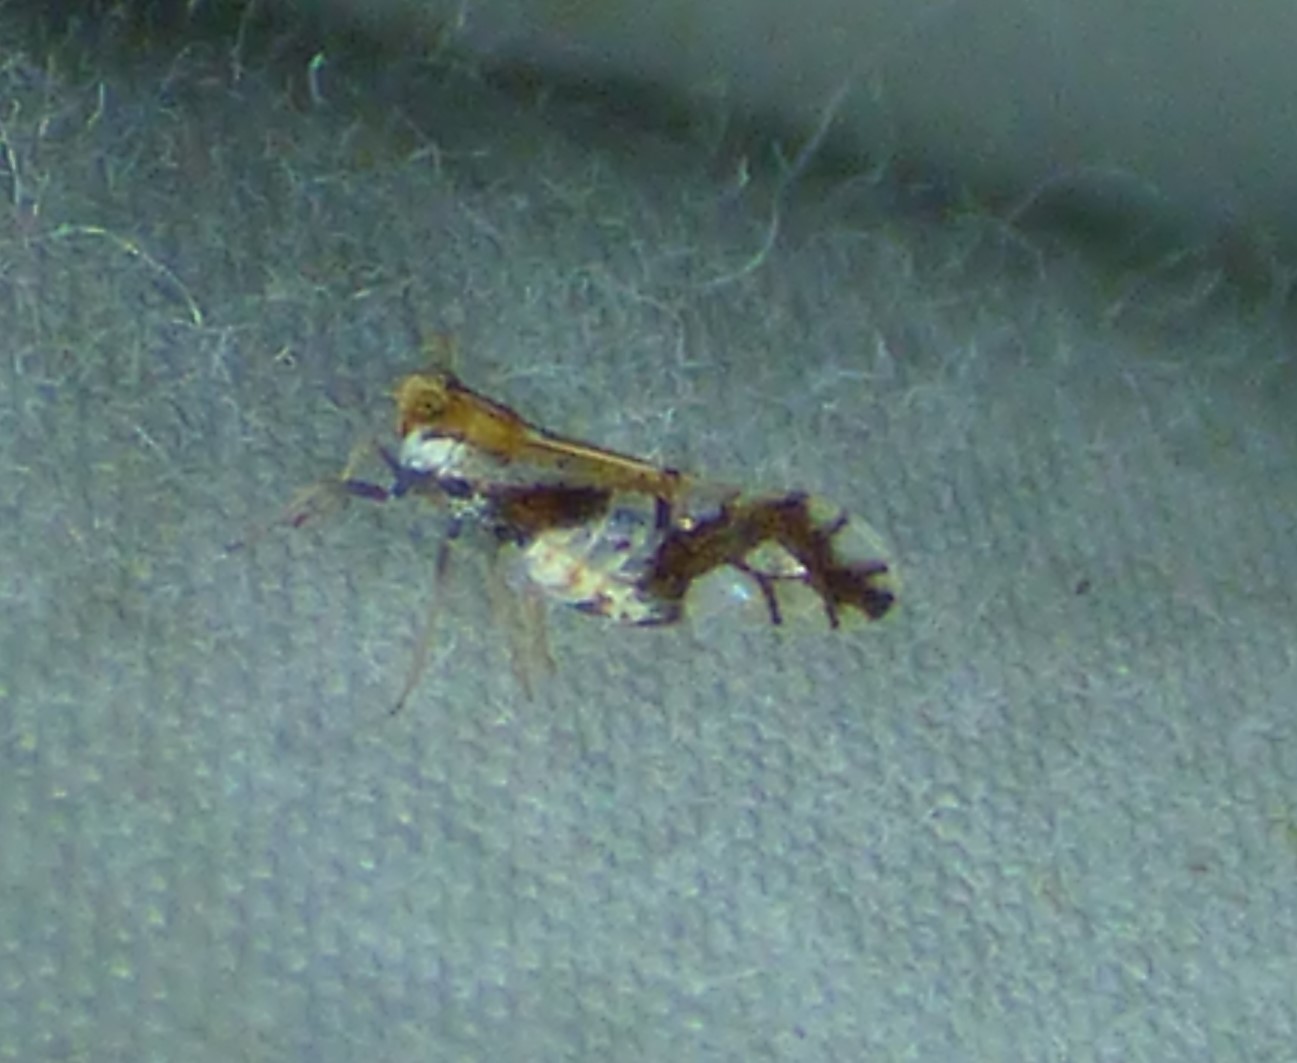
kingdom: Animalia
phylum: Arthropoda
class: Insecta
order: Hemiptera
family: Delphacidae
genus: Liburniella
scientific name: Liburniella ornata
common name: Ornate planthopper
